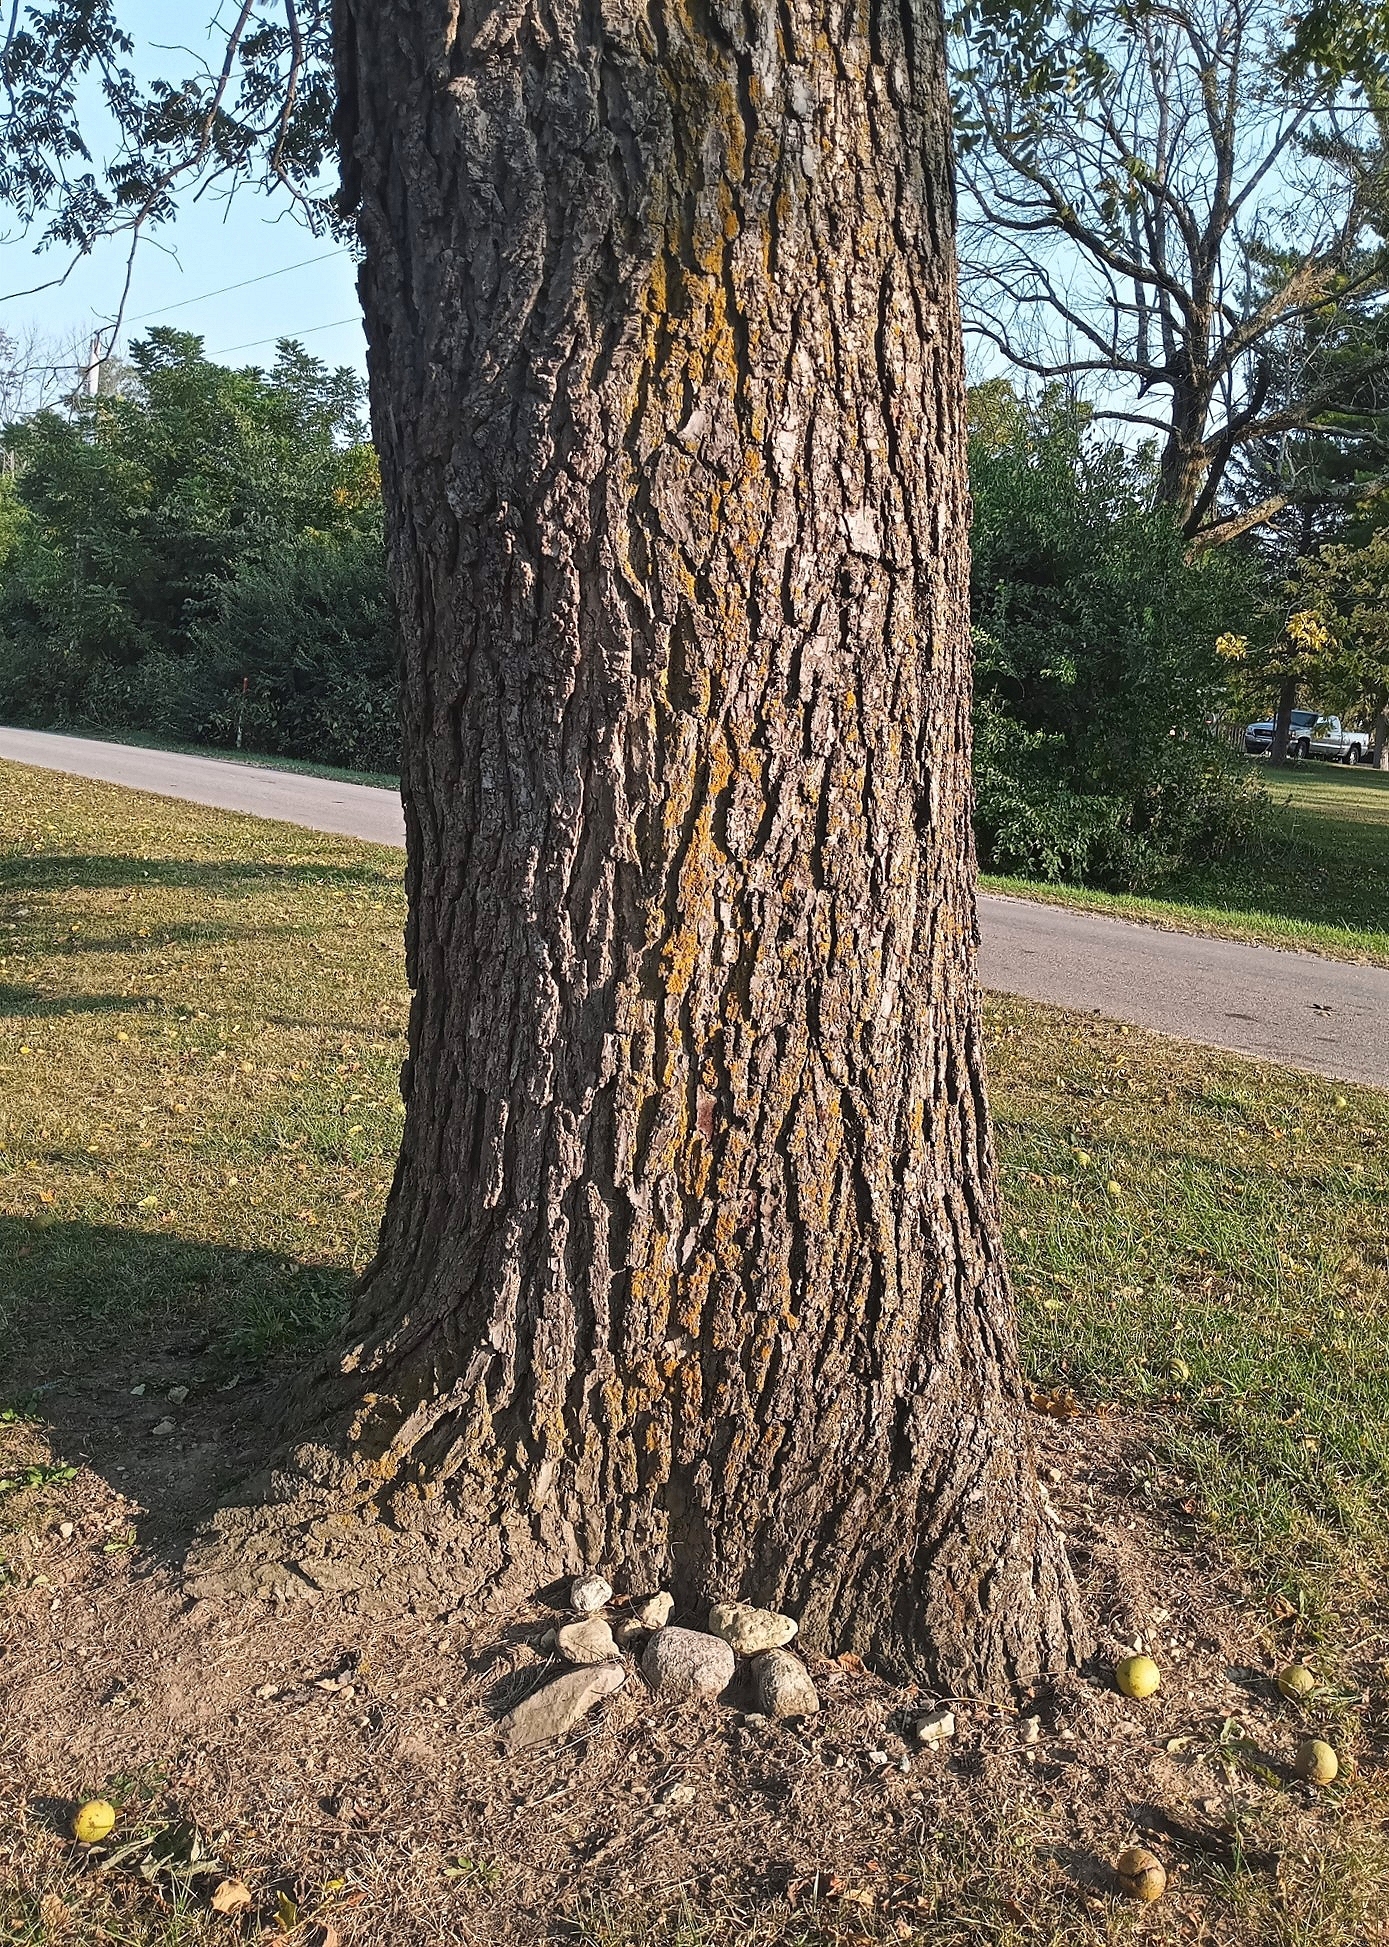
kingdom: Plantae
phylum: Tracheophyta
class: Magnoliopsida
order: Fagales
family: Juglandaceae
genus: Juglans
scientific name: Juglans nigra
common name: Black walnut
